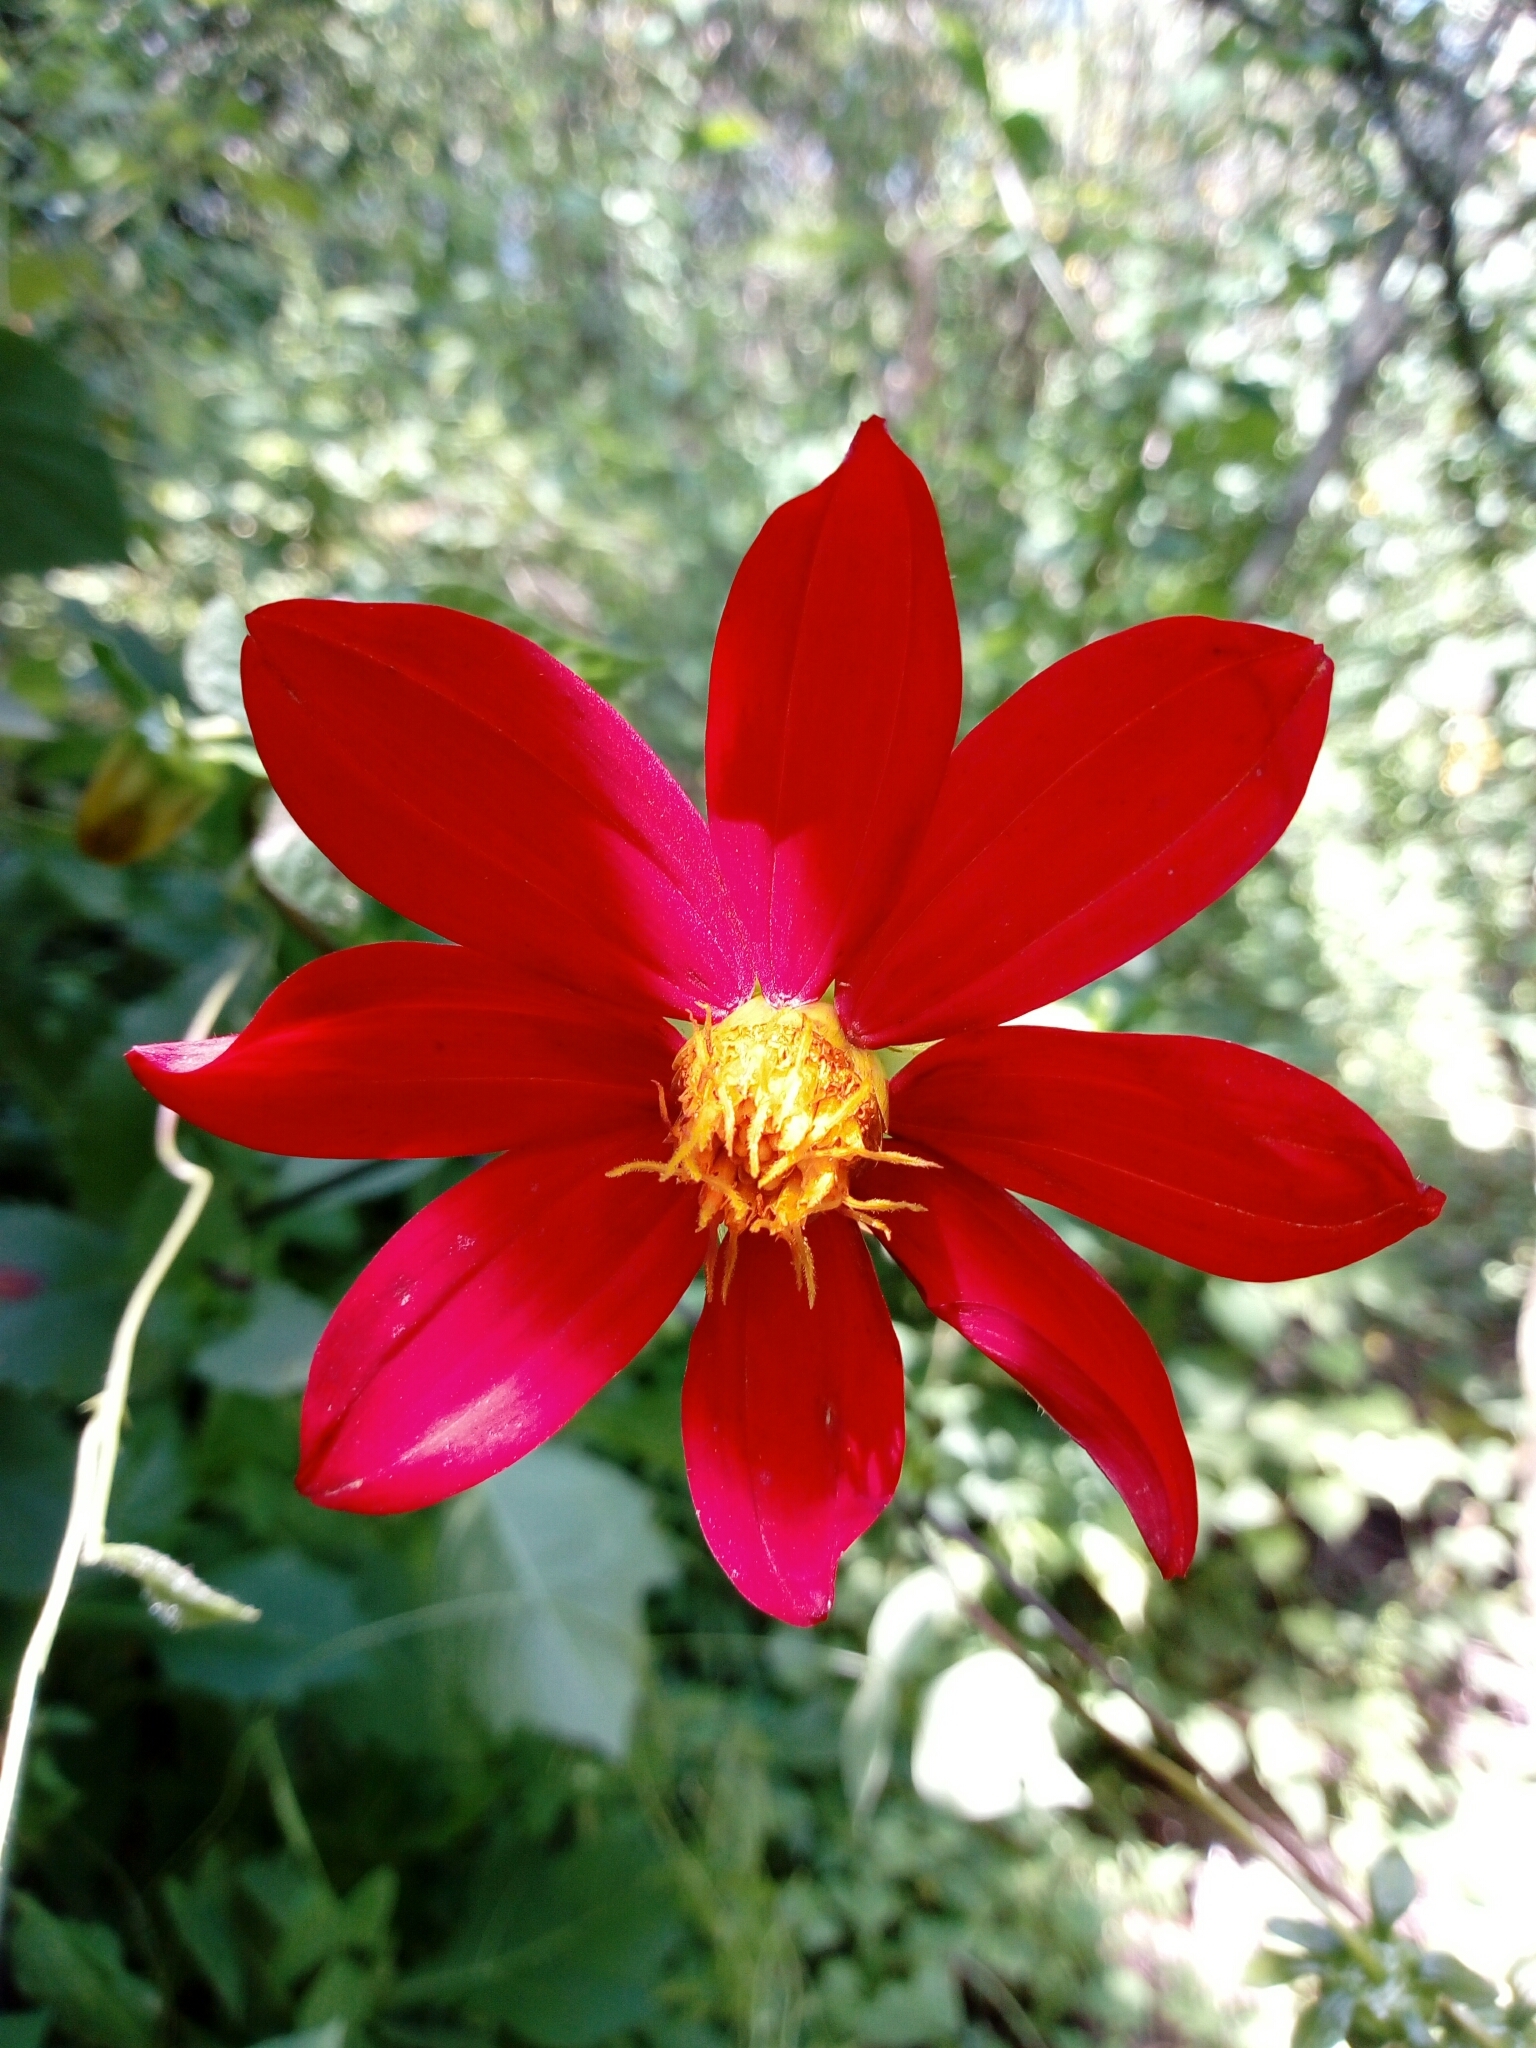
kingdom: Plantae
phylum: Tracheophyta
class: Magnoliopsida
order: Asterales
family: Asteraceae
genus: Dahlia
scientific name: Dahlia coccinea
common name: Red dahlia
